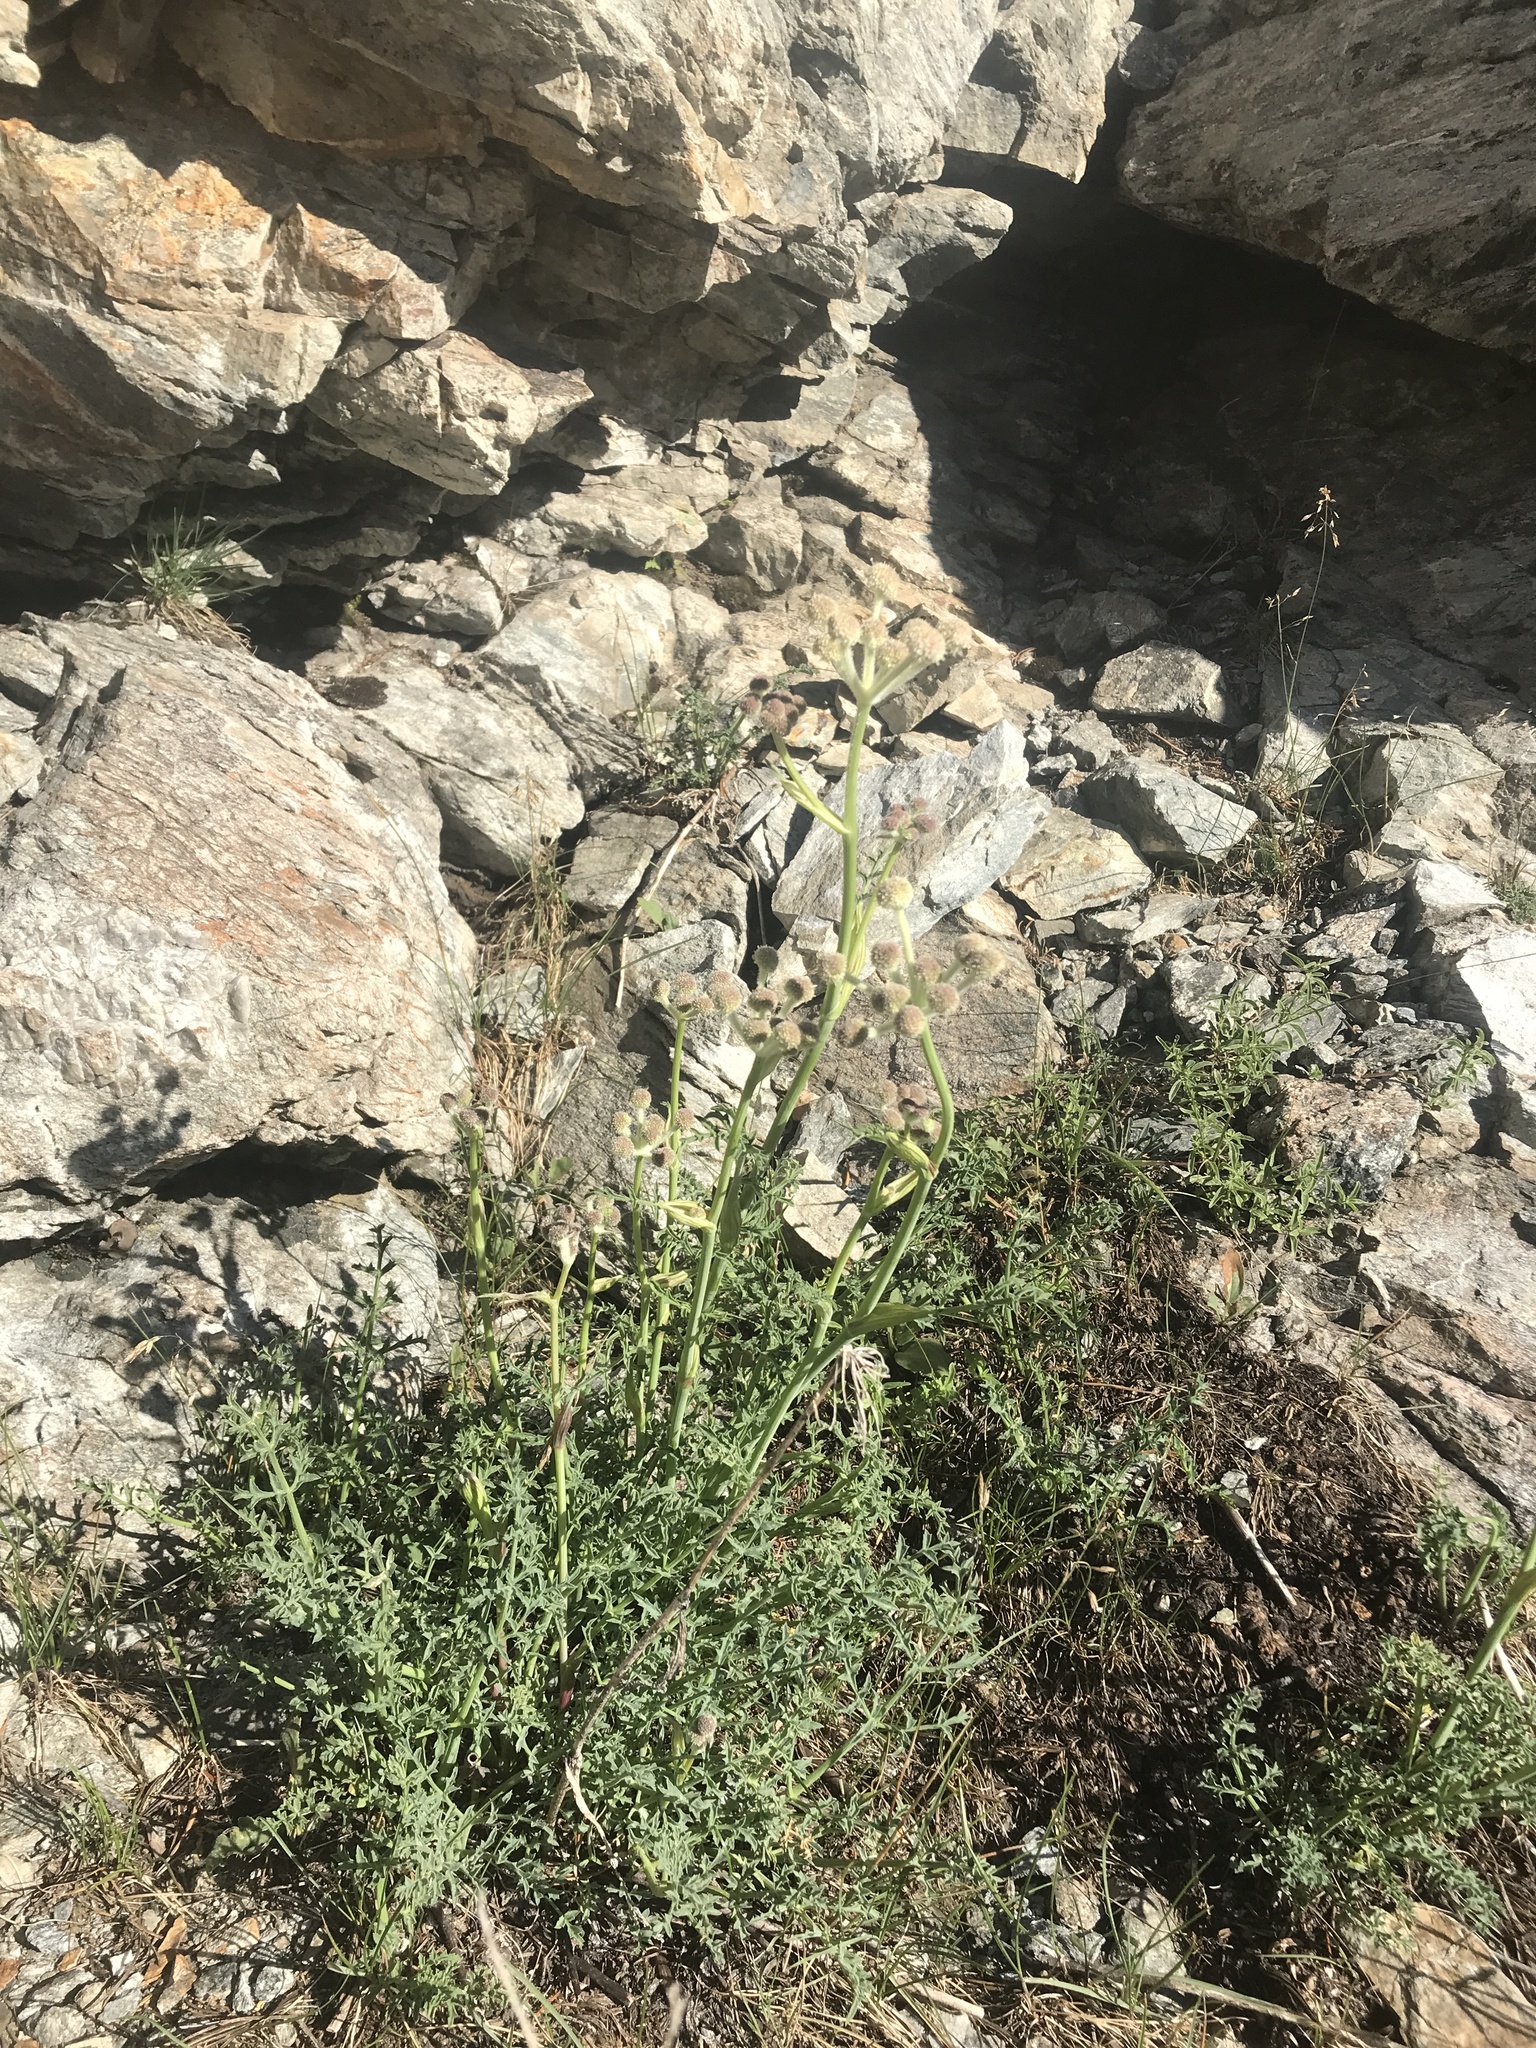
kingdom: Plantae
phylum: Tracheophyta
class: Magnoliopsida
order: Apiales
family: Apiaceae
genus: Angelica
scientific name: Angelica capitellata
